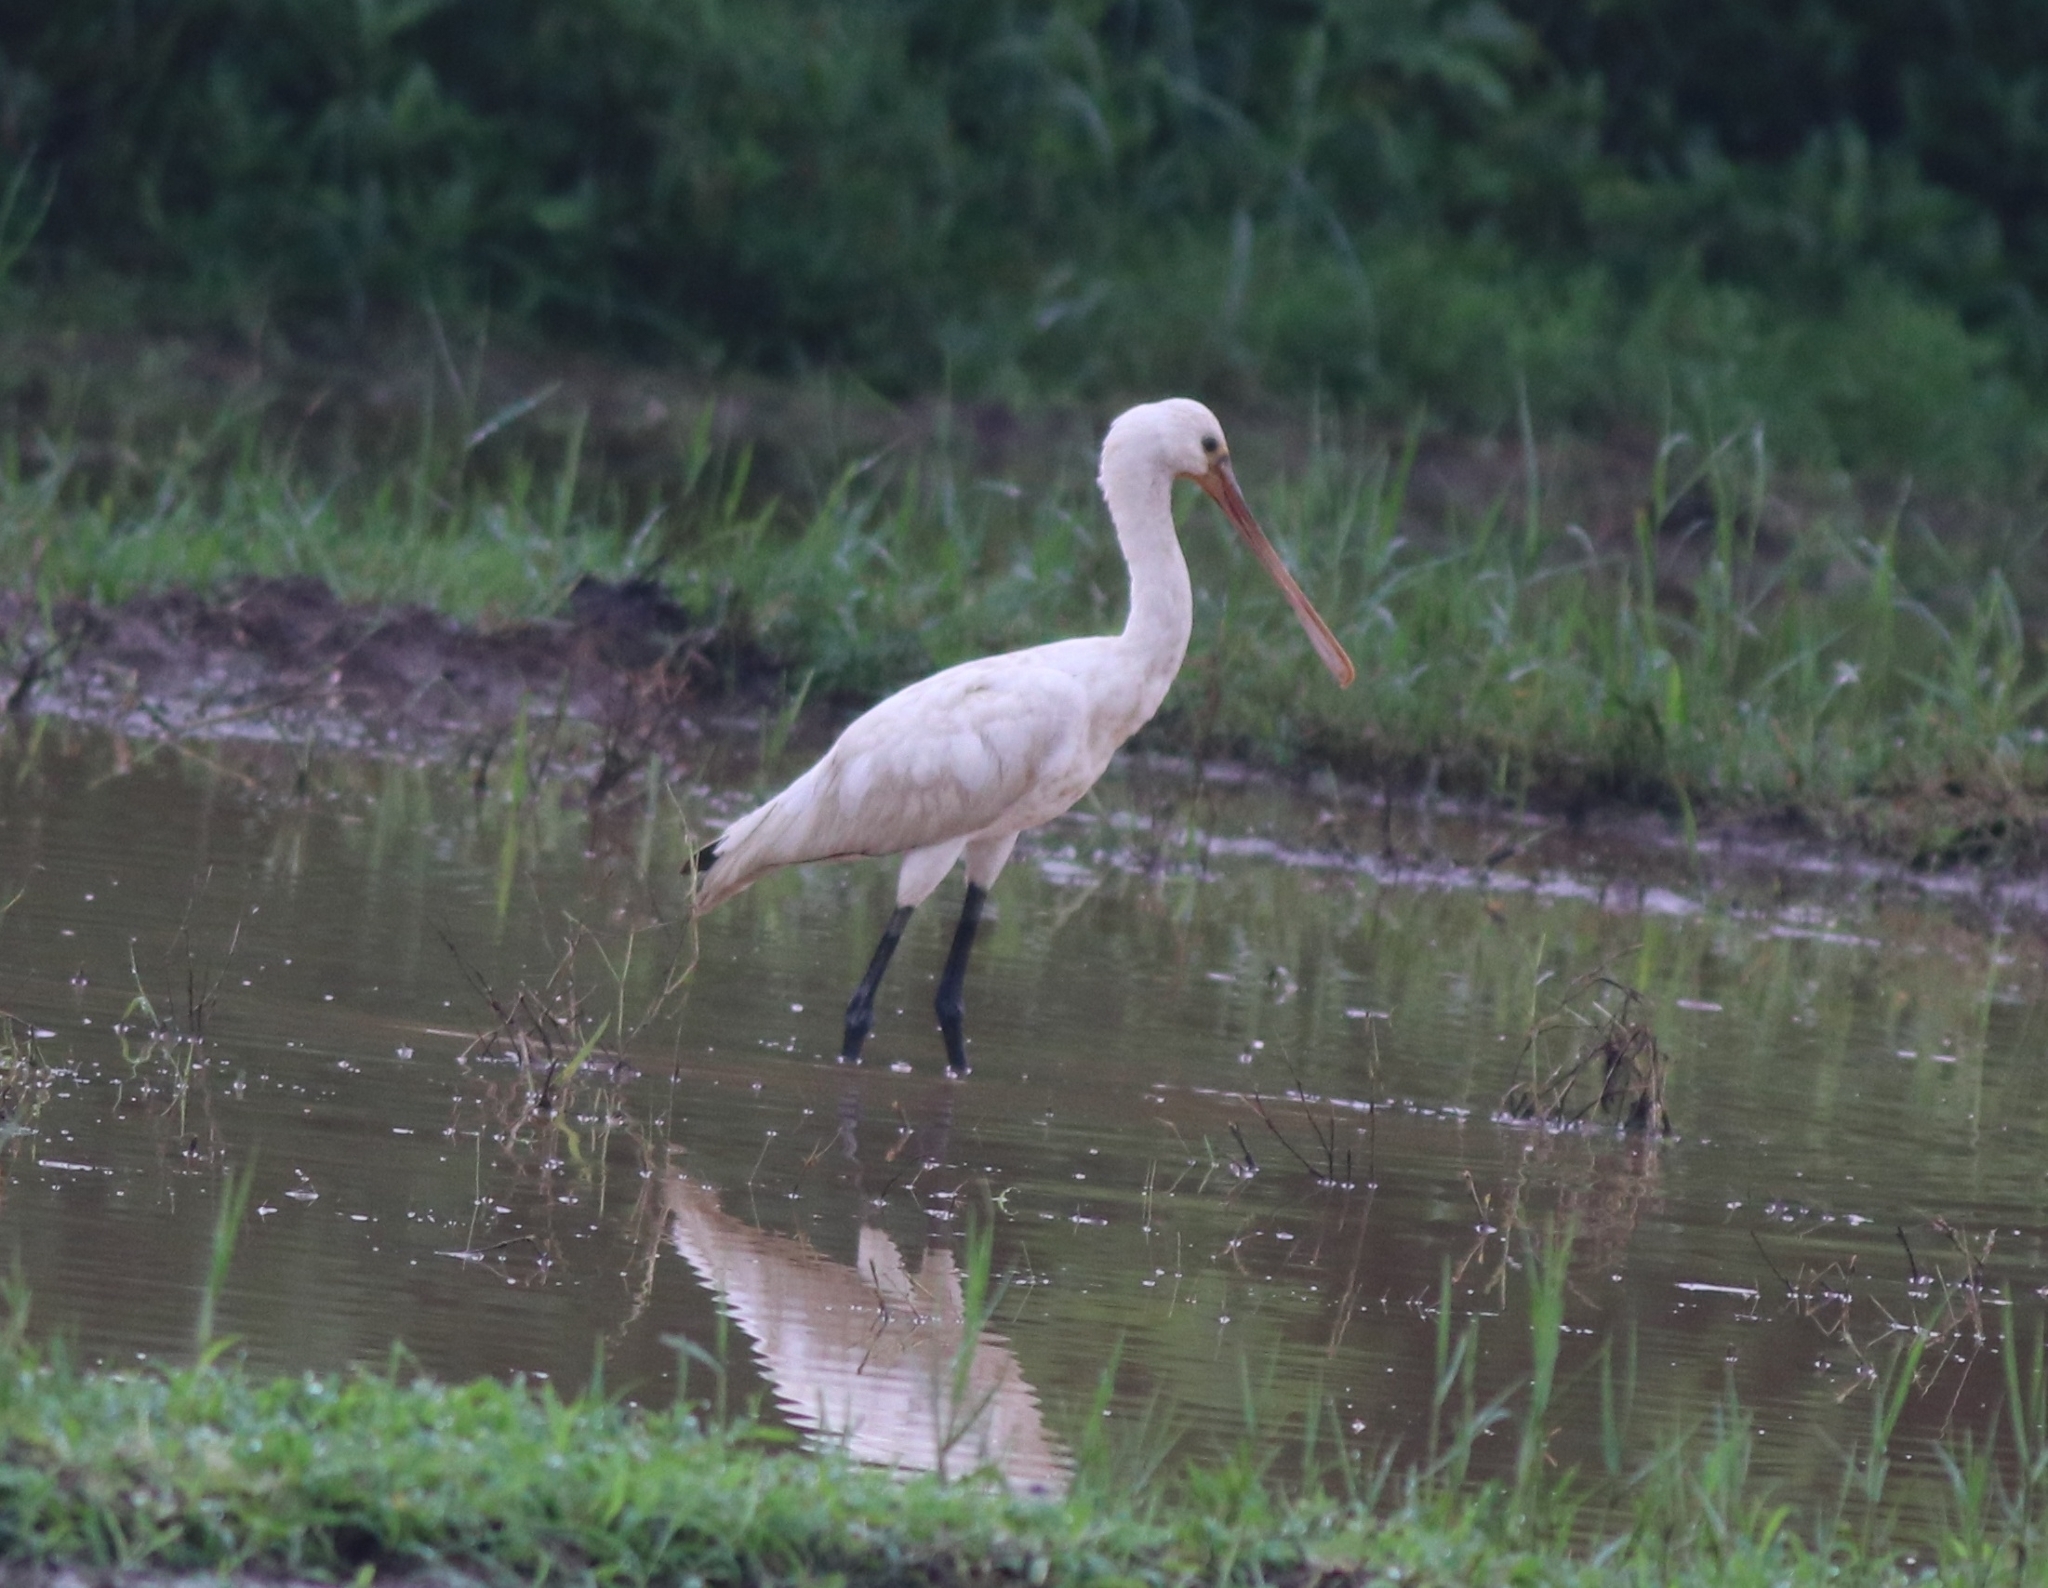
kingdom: Animalia
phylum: Chordata
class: Aves
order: Pelecaniformes
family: Threskiornithidae
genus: Platalea
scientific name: Platalea leucorodia
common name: Eurasian spoonbill
